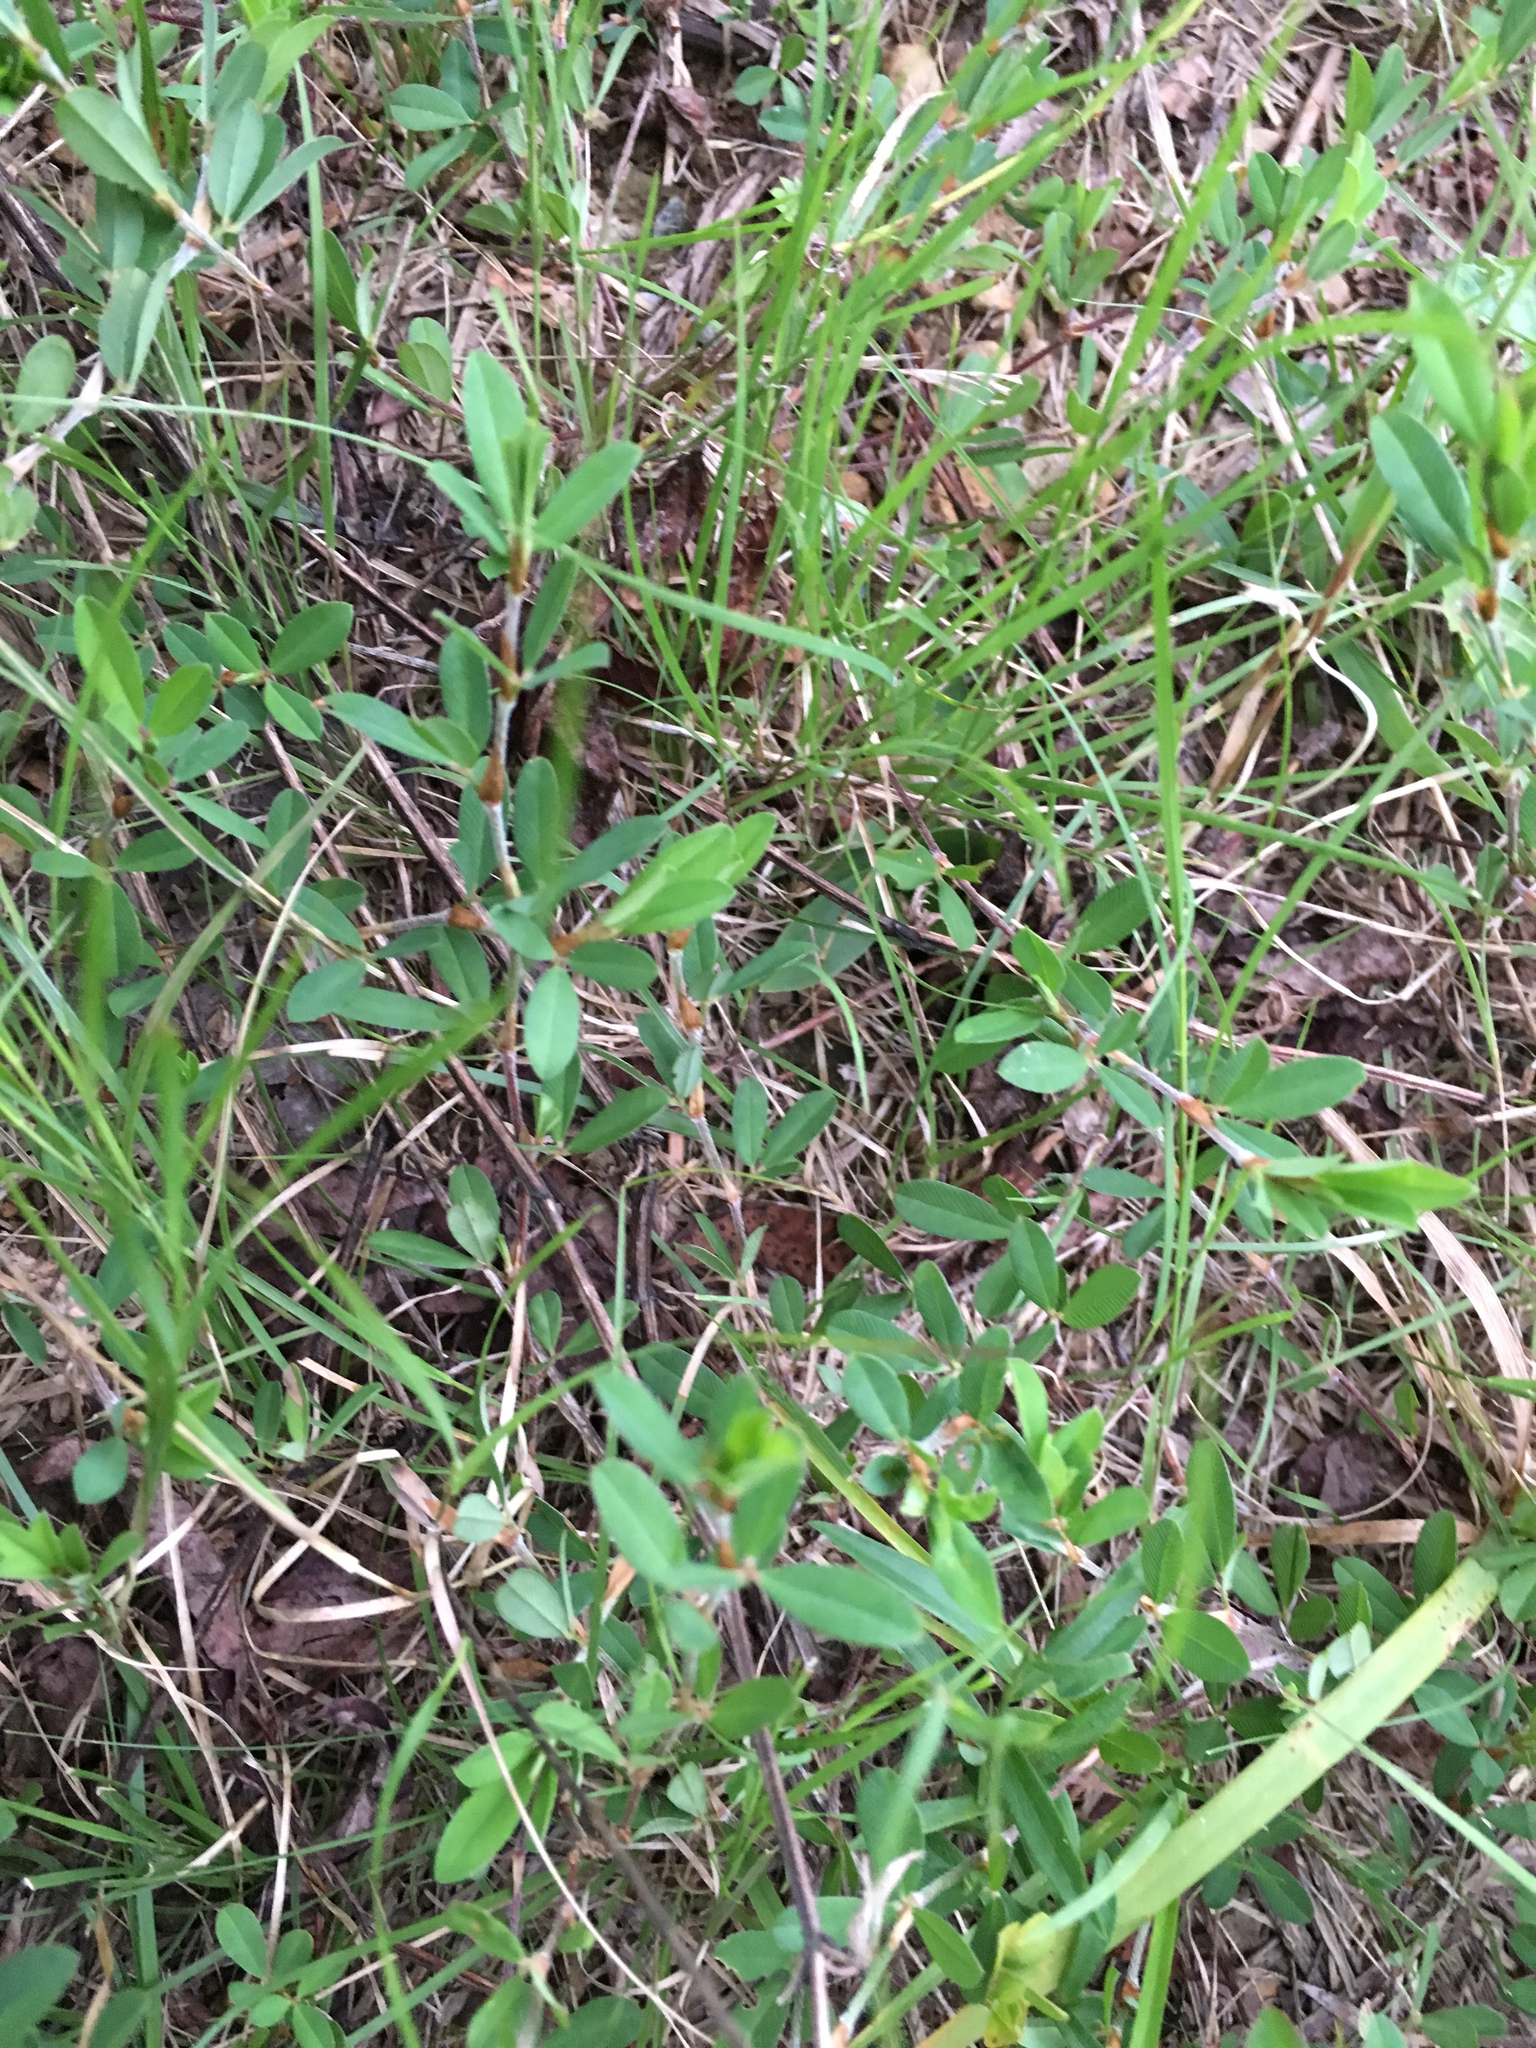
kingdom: Plantae
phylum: Tracheophyta
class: Magnoliopsida
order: Fabales
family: Fabaceae
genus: Kummerowia
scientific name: Kummerowia striata
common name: Japanese clover
